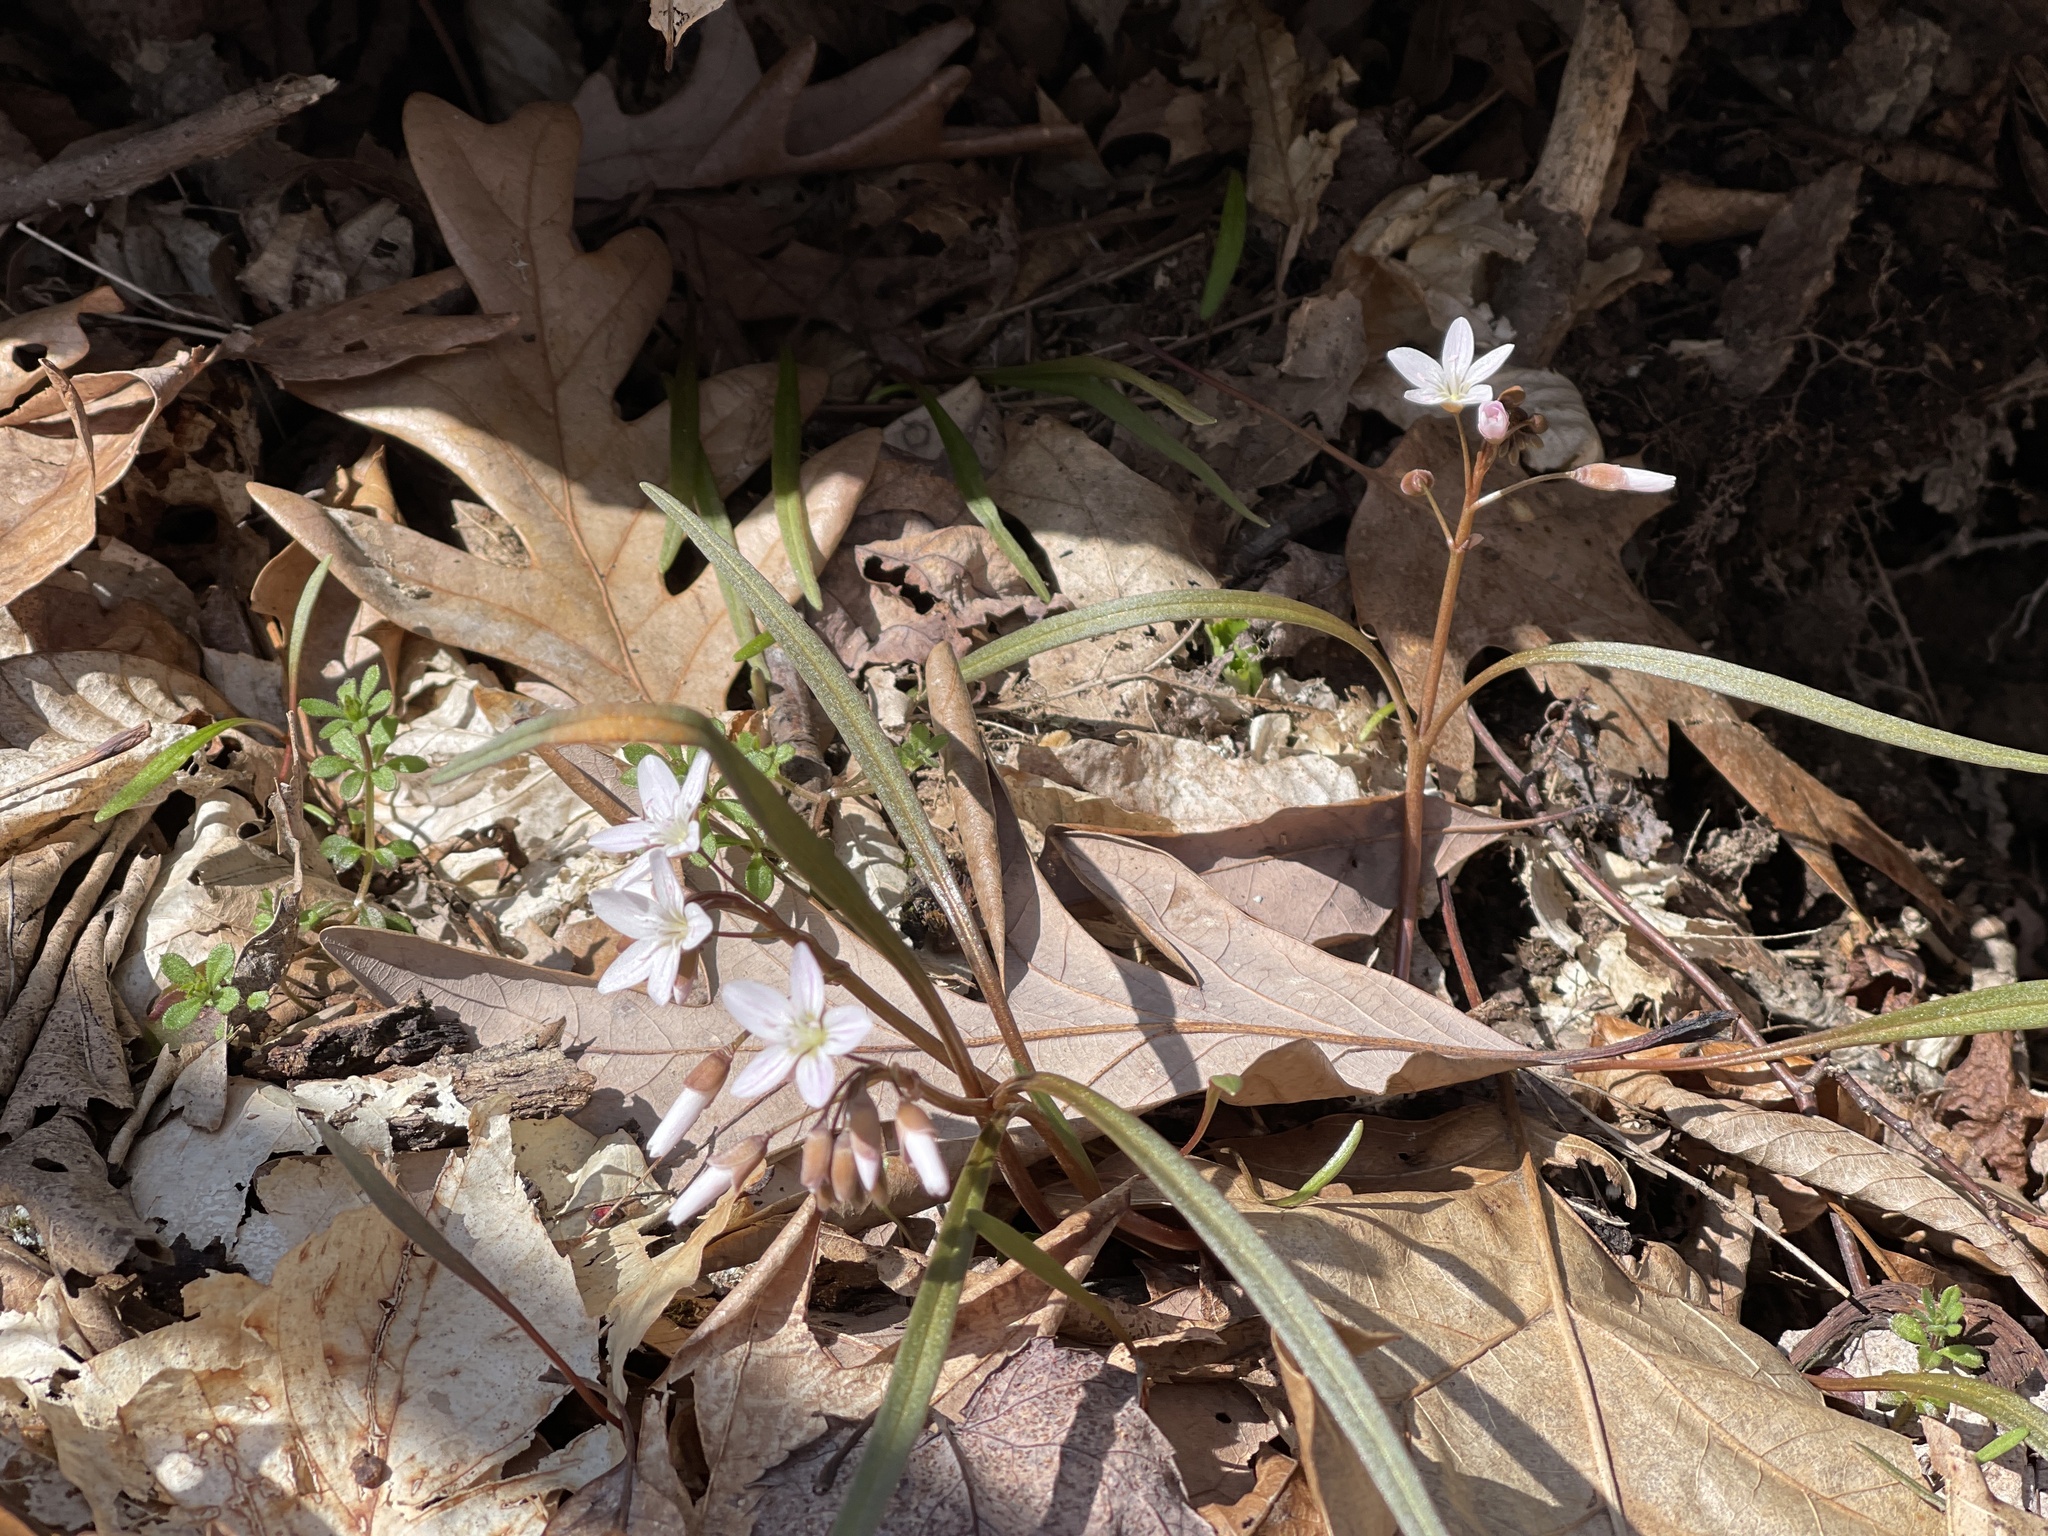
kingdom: Plantae
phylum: Tracheophyta
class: Magnoliopsida
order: Caryophyllales
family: Montiaceae
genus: Claytonia
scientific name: Claytonia virginica
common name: Virginia springbeauty
